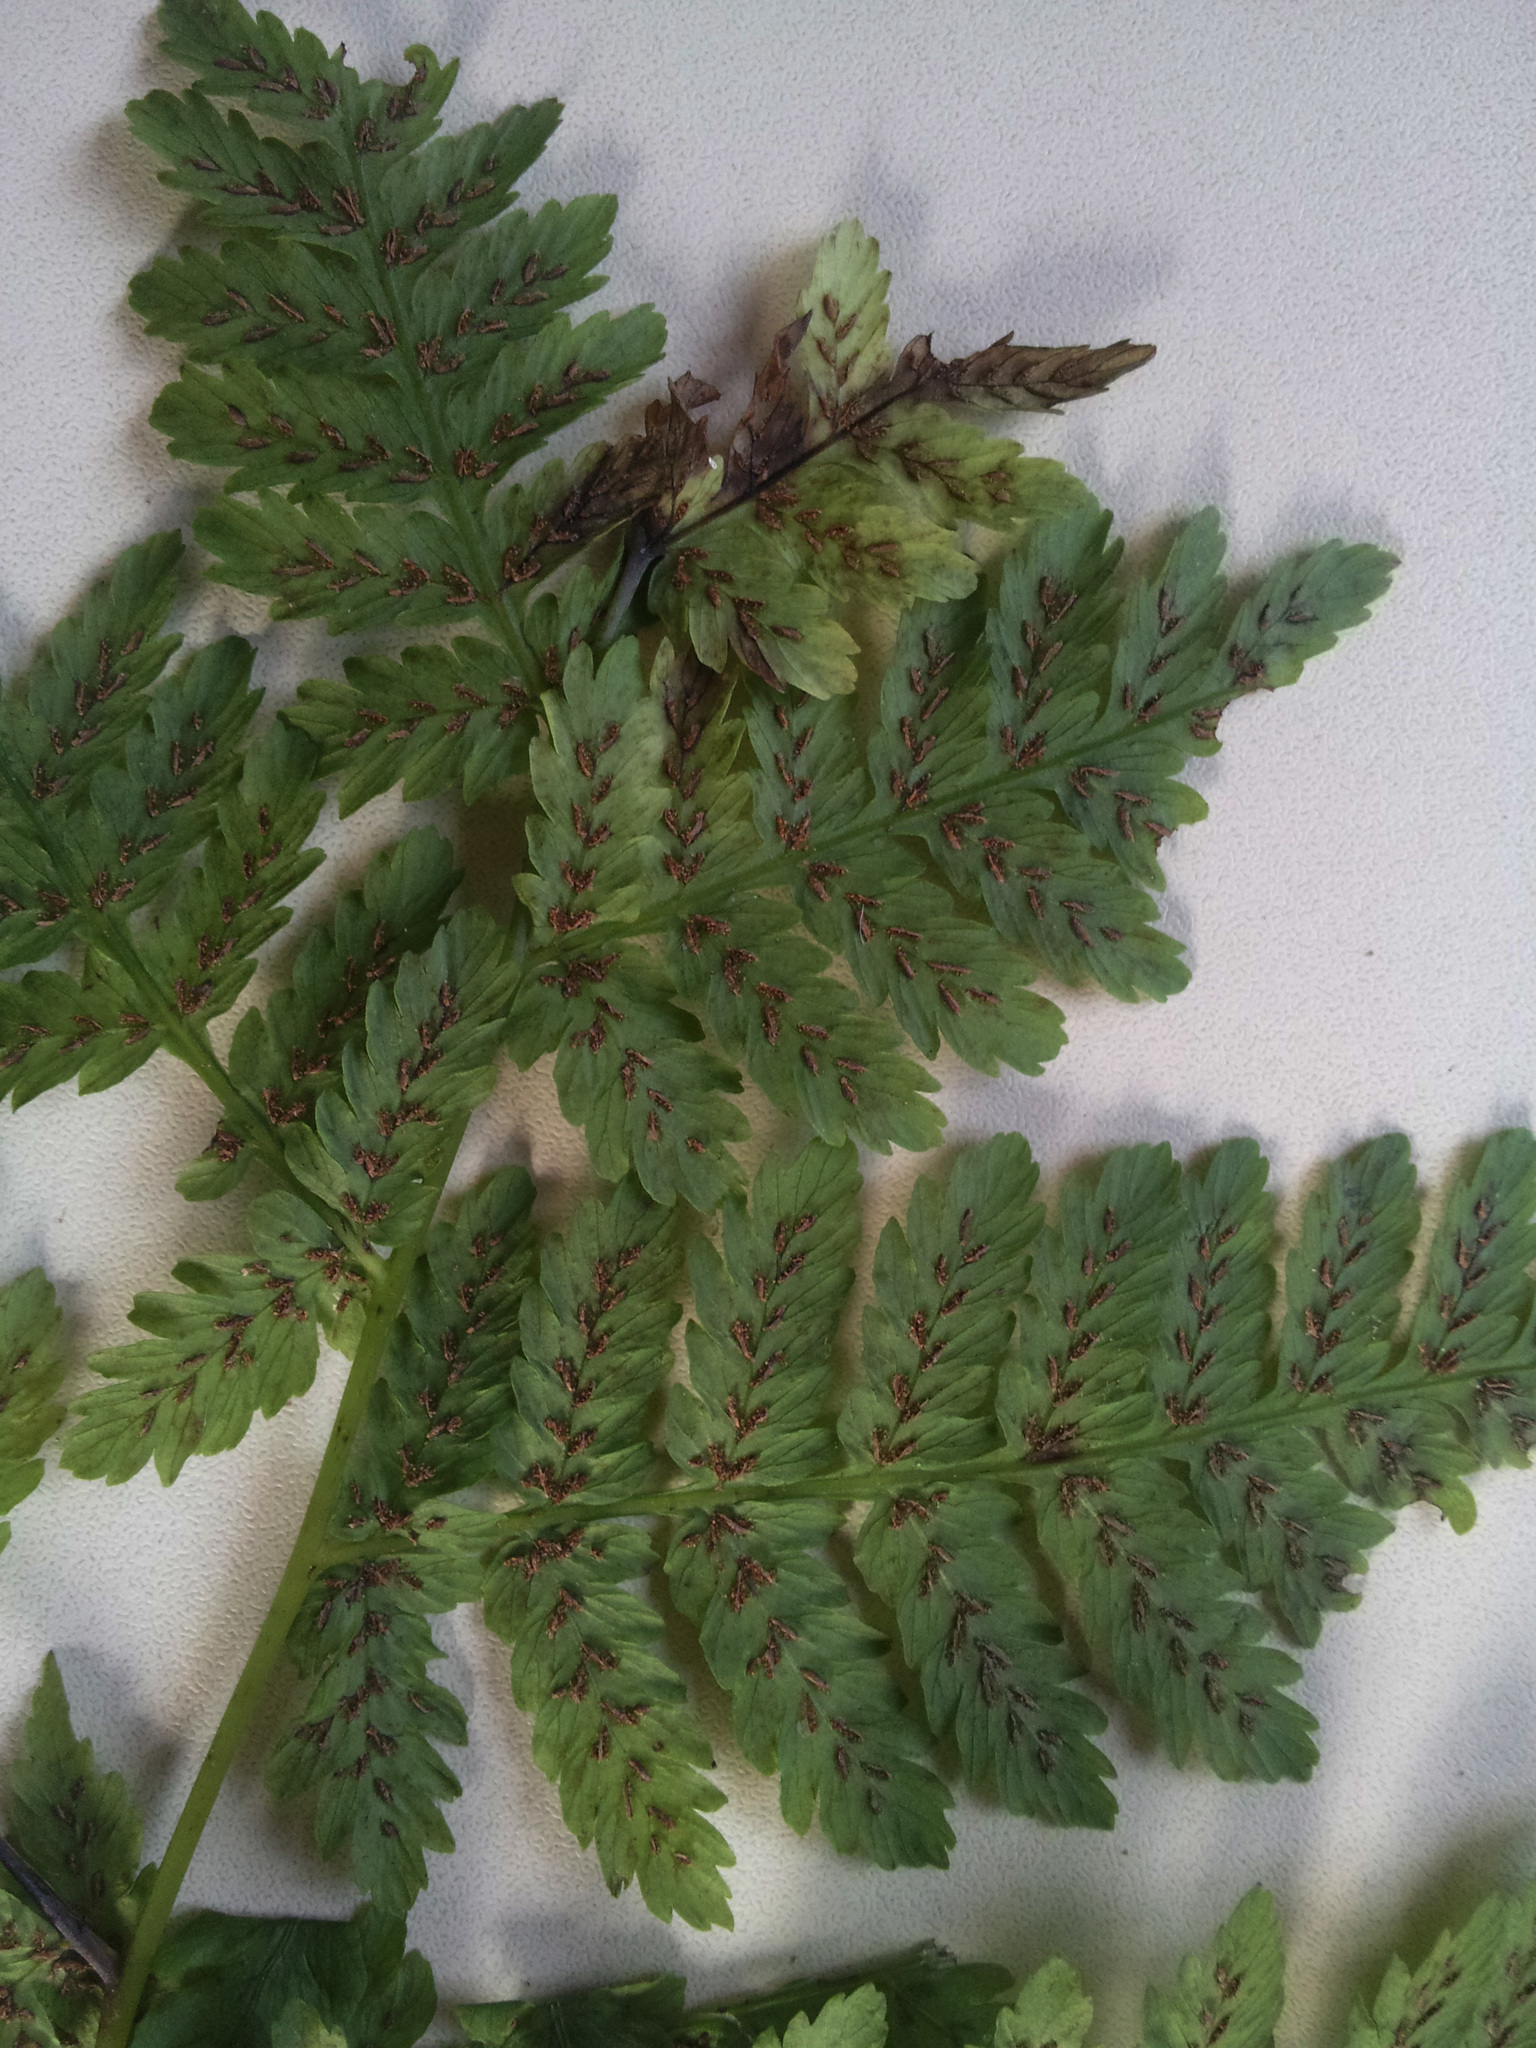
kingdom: Plantae
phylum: Tracheophyta
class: Polypodiopsida
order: Polypodiales
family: Athyriaceae
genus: Diplazium
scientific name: Diplazium australe
